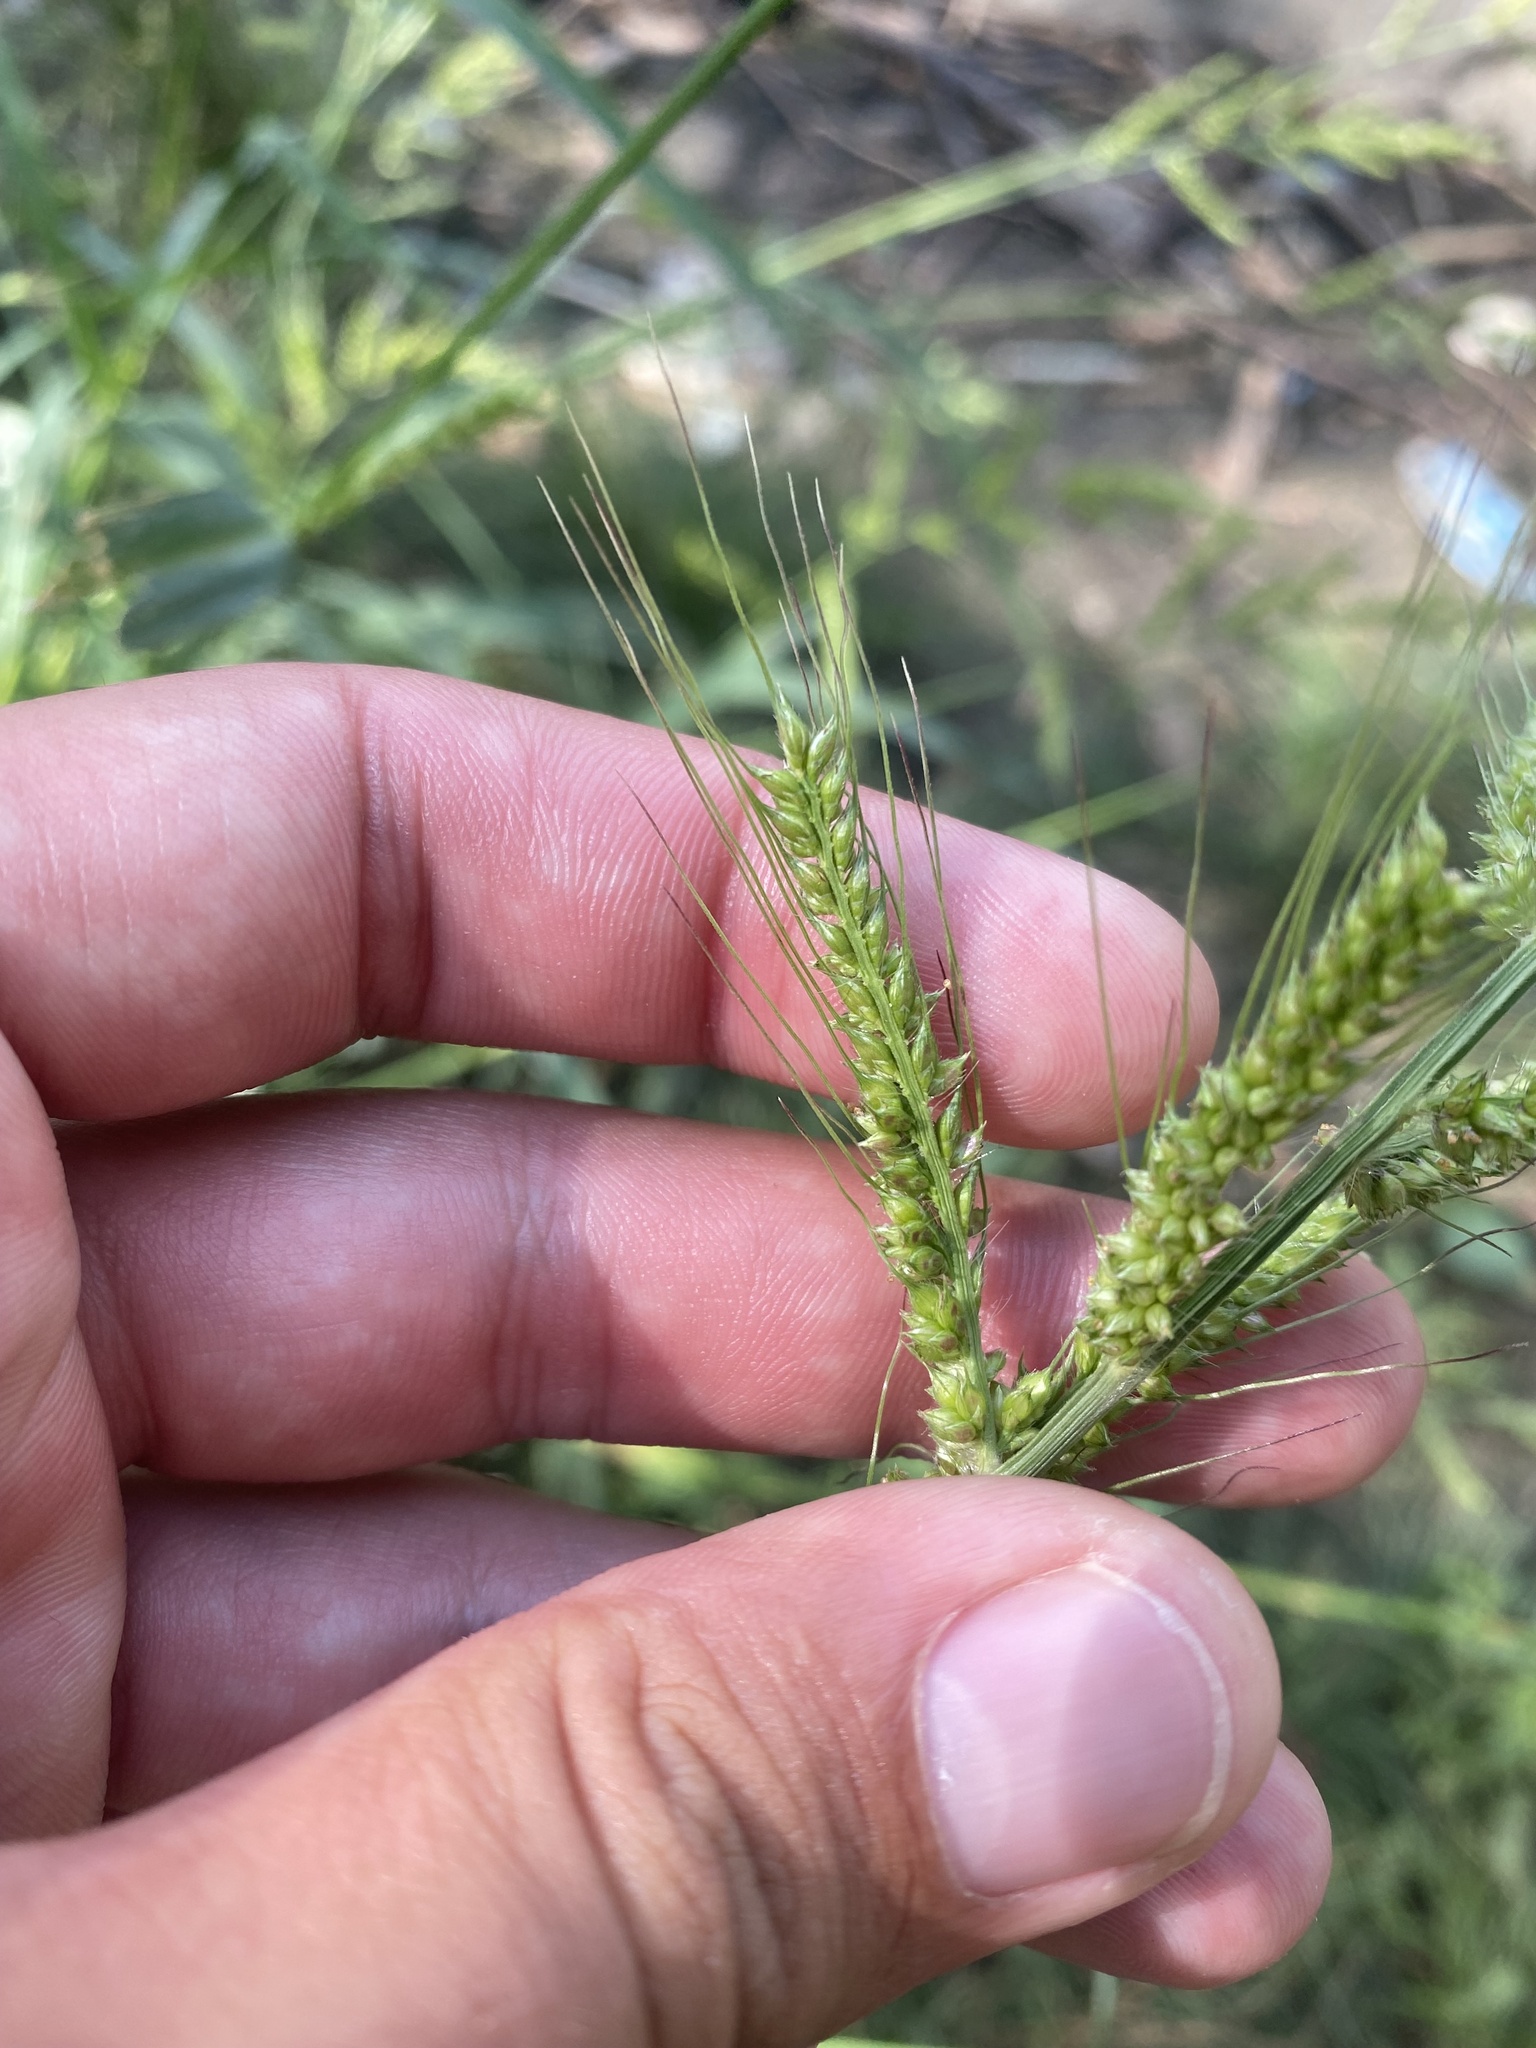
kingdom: Plantae
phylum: Tracheophyta
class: Liliopsida
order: Poales
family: Poaceae
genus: Echinochloa
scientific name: Echinochloa crus-galli
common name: Cockspur
